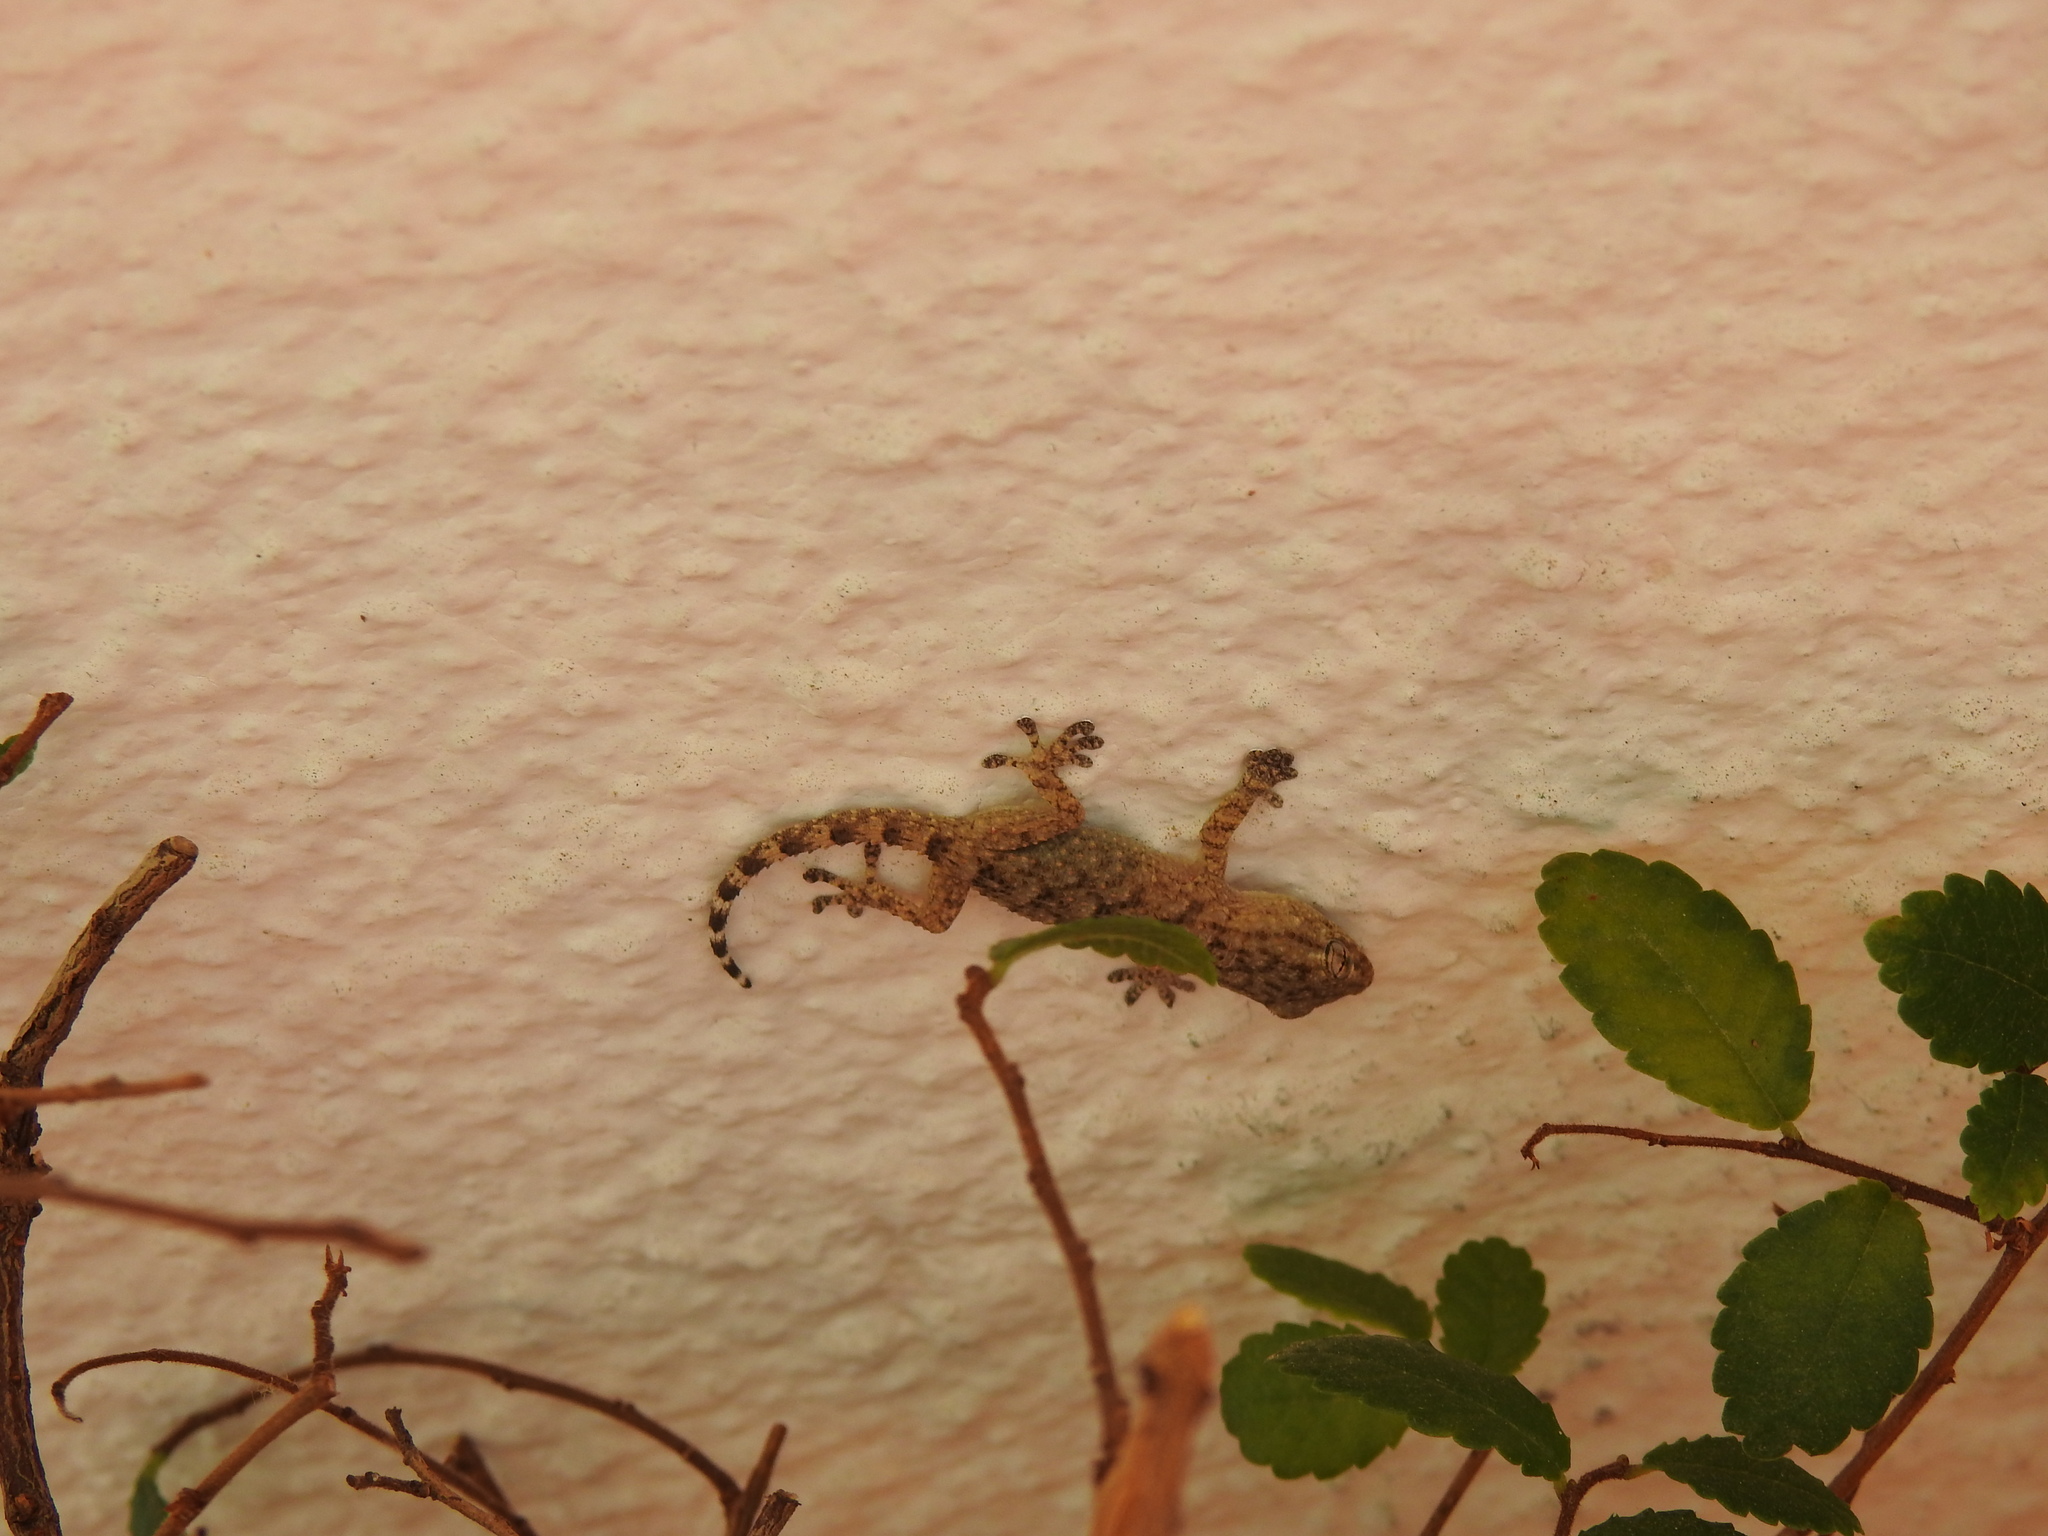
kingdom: Animalia
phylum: Chordata
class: Squamata
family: Phyllodactylidae
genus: Tarentola
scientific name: Tarentola mauritanica
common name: Moorish gecko
